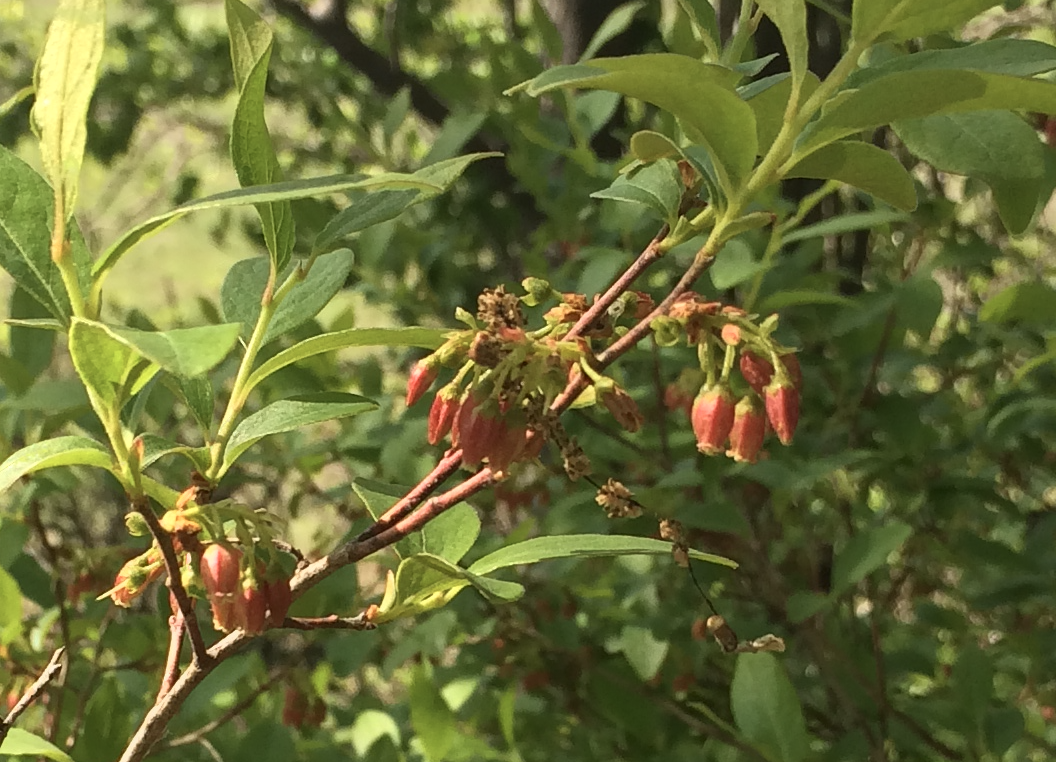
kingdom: Plantae
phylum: Tracheophyta
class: Magnoliopsida
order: Ericales
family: Ericaceae
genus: Gaylussacia
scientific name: Gaylussacia baccata
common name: Black huckleberry
